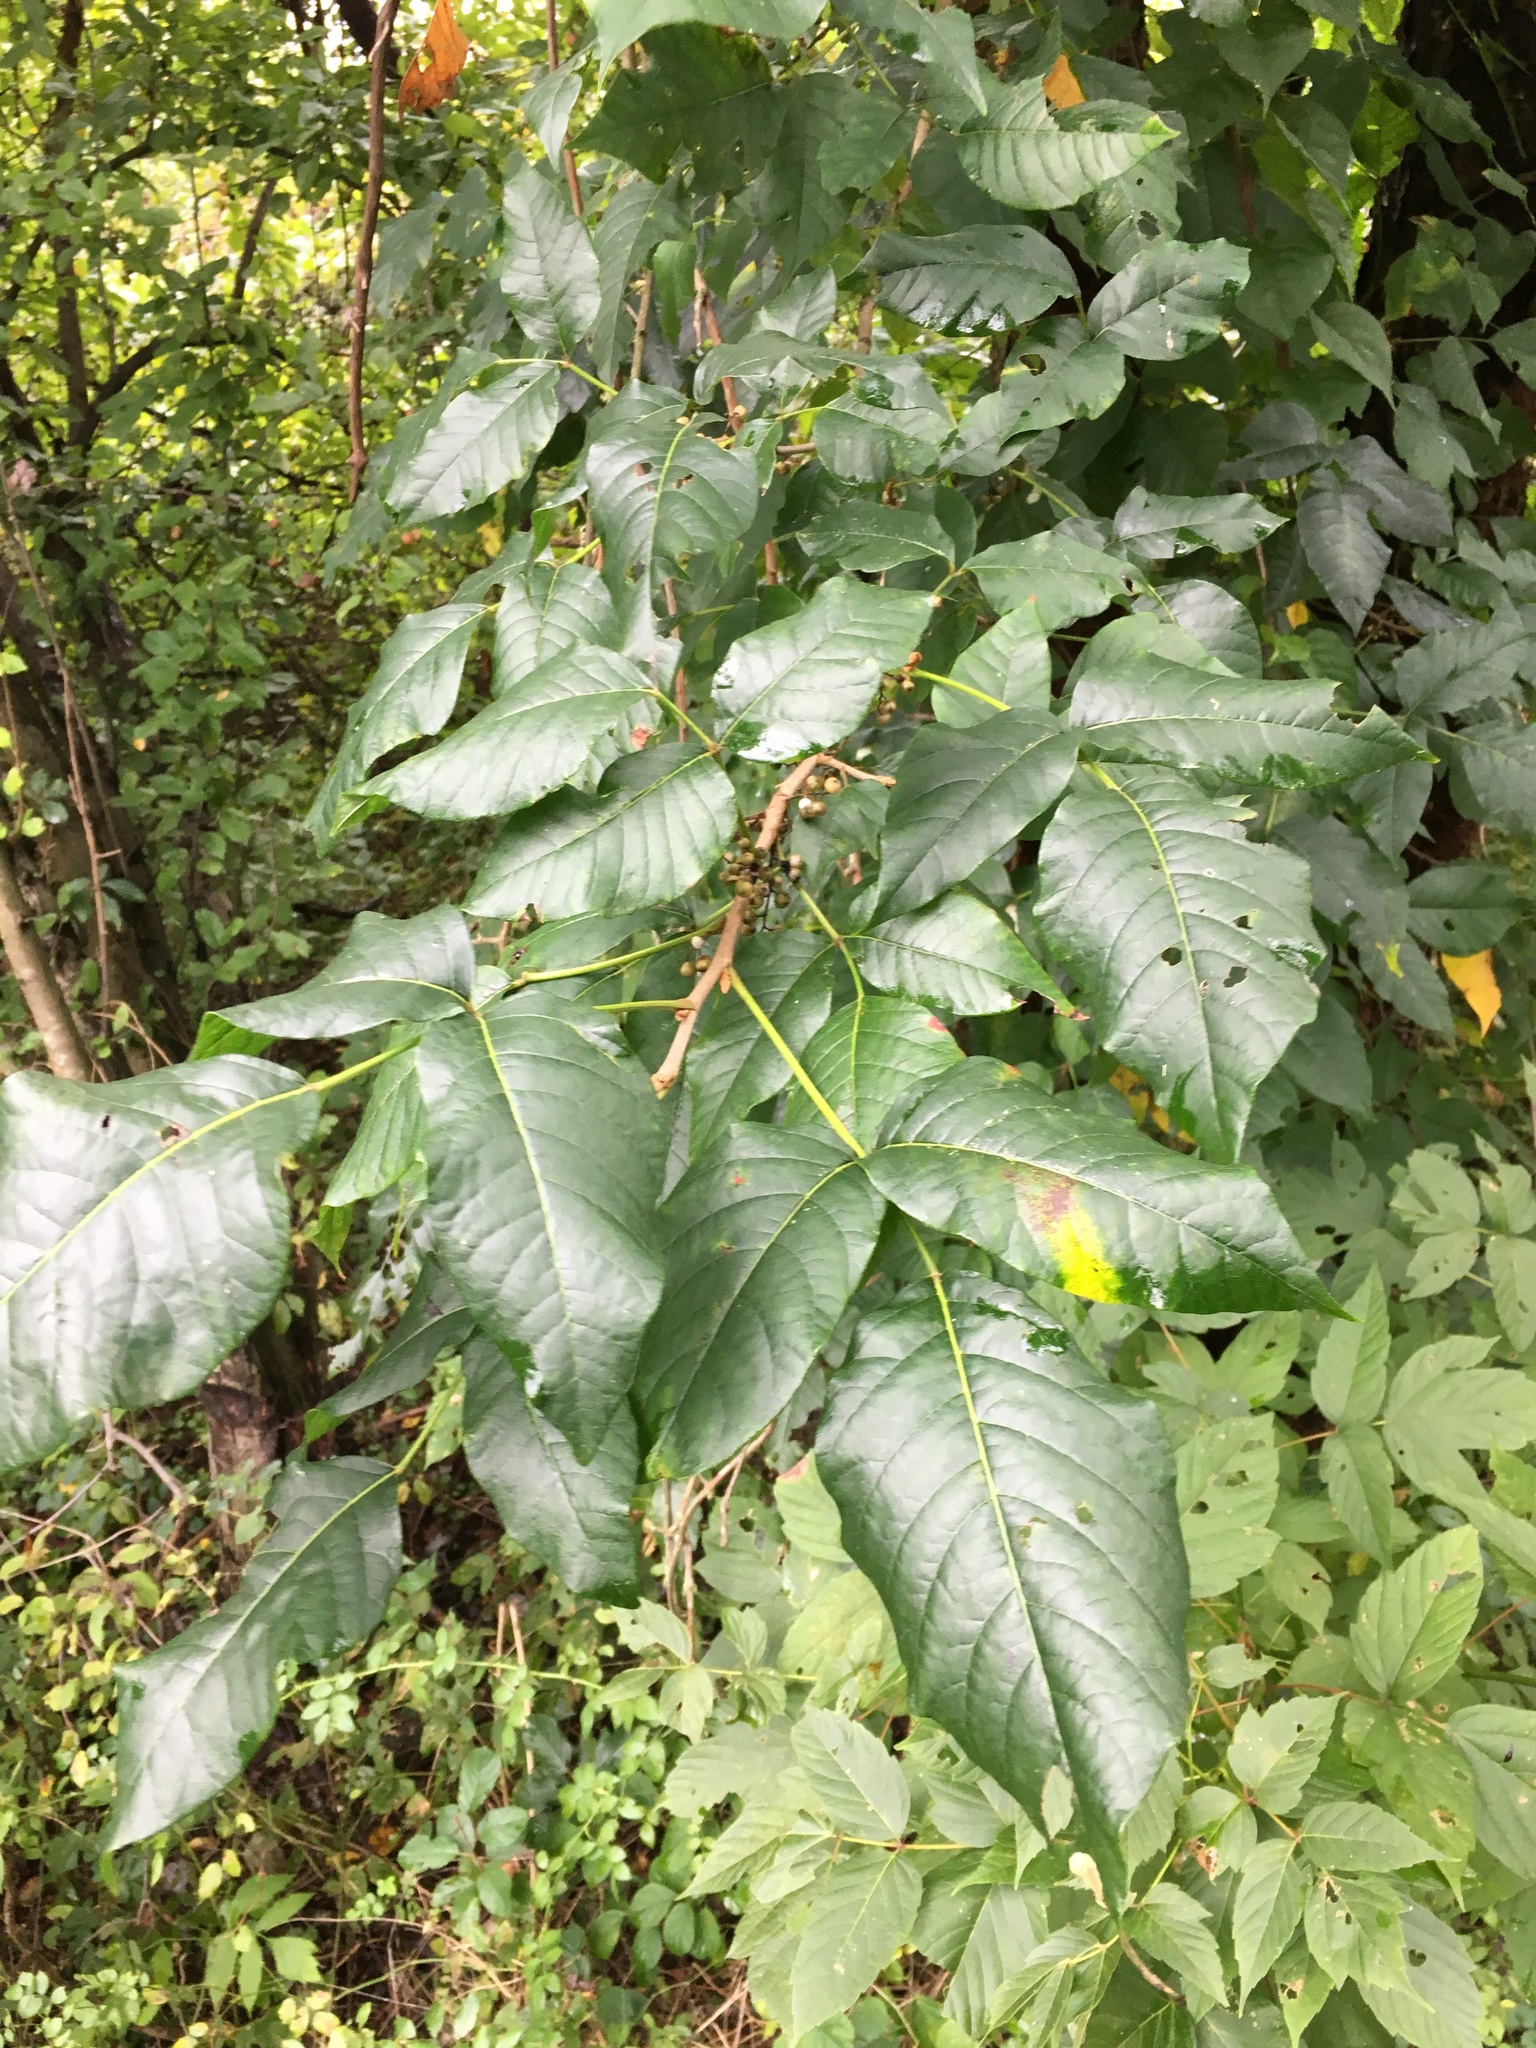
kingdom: Plantae
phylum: Tracheophyta
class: Magnoliopsida
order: Sapindales
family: Anacardiaceae
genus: Toxicodendron
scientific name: Toxicodendron radicans
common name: Poison ivy
